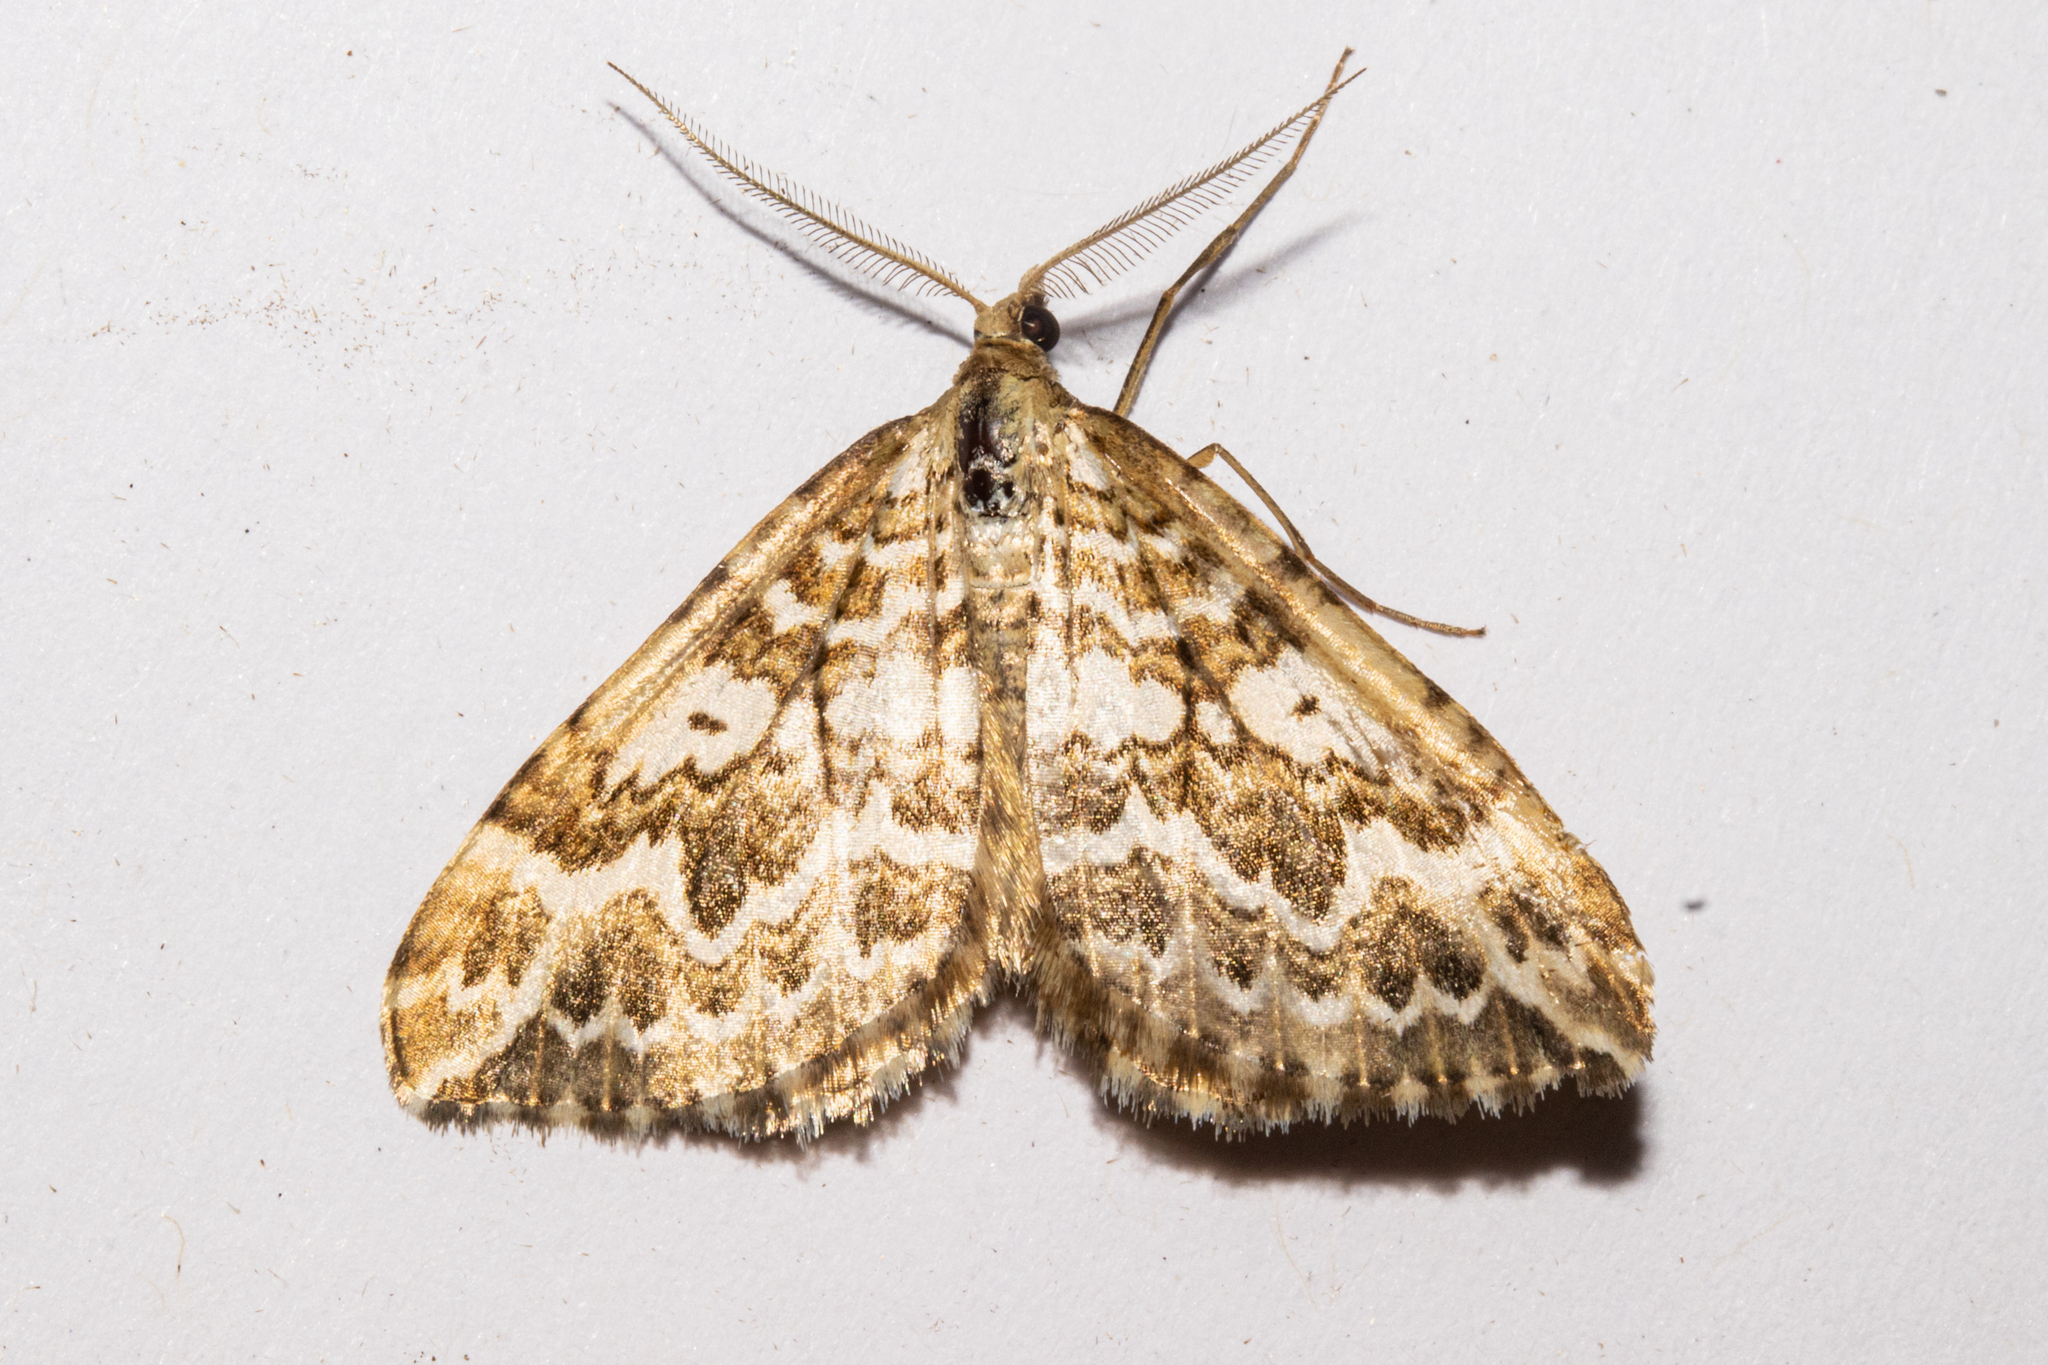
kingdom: Animalia
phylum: Arthropoda
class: Insecta
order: Lepidoptera
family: Geometridae
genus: Asaphodes
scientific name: Asaphodes clarata
